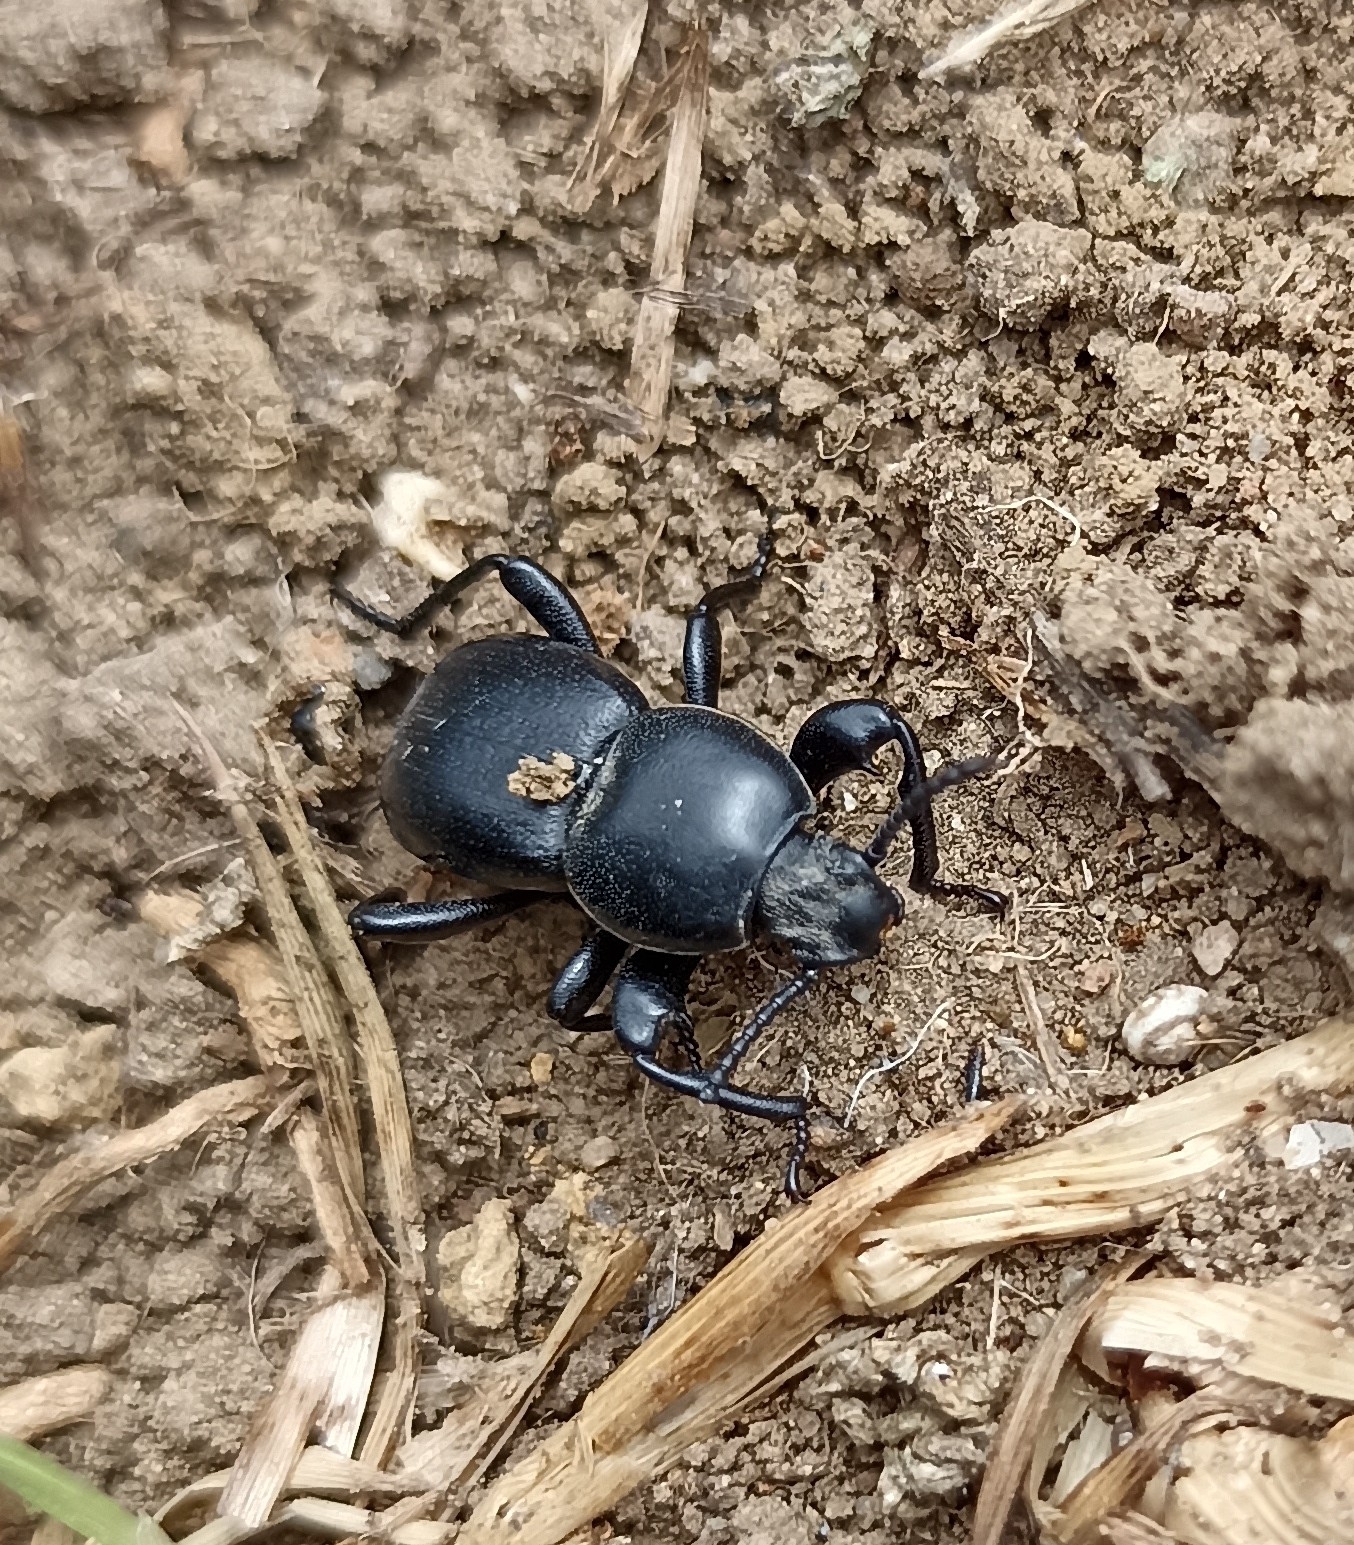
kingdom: Animalia
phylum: Arthropoda
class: Insecta
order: Coleoptera
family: Tenebrionidae
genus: Scaurus
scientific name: Scaurus atratus
